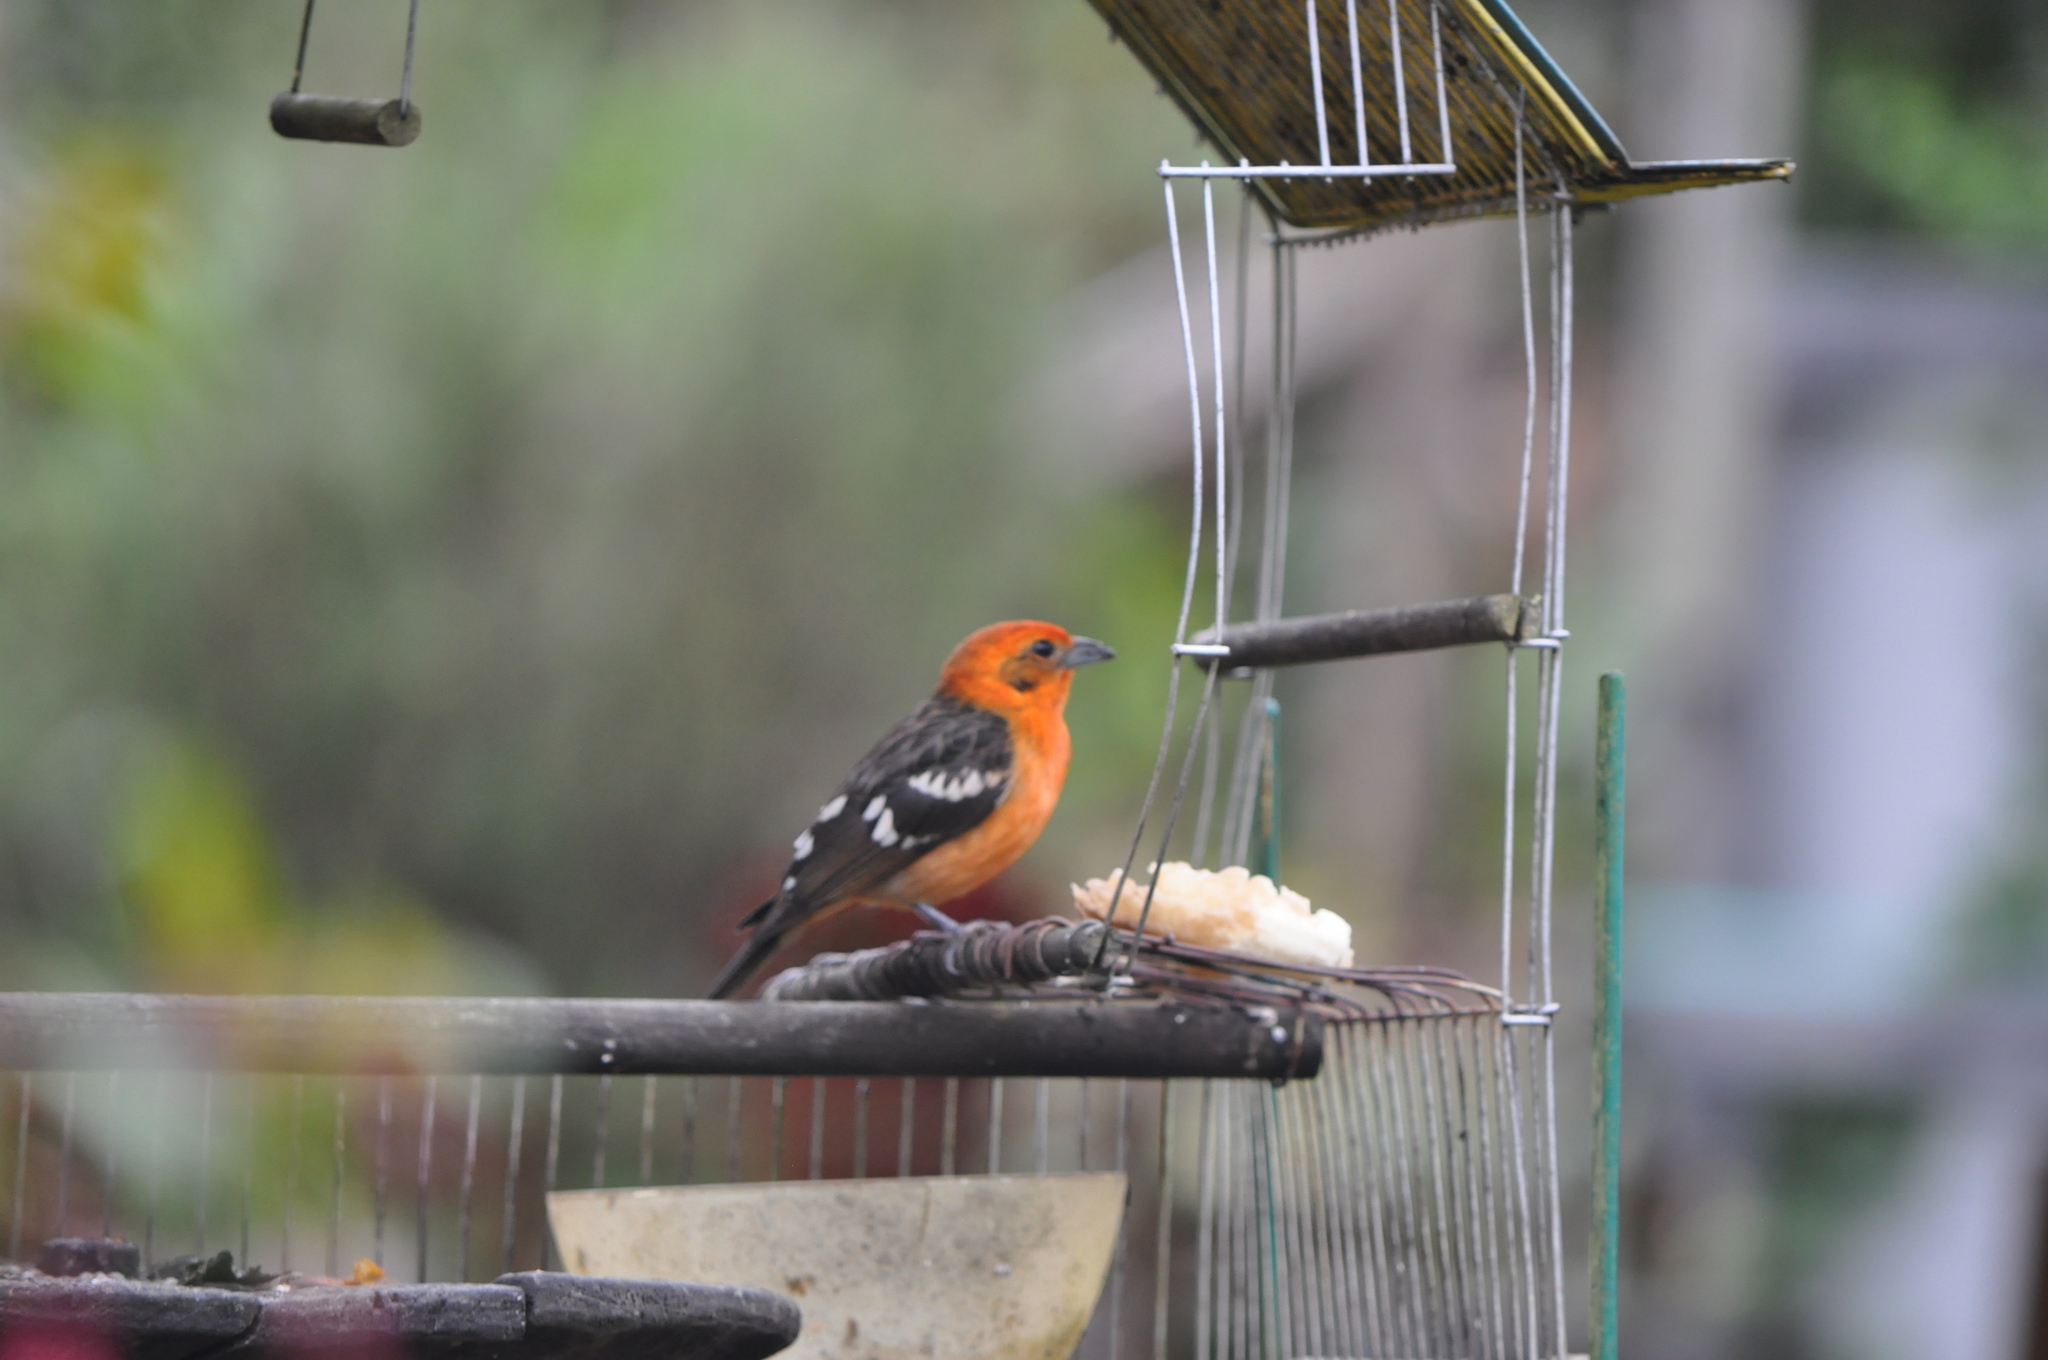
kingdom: Animalia
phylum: Chordata
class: Aves
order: Passeriformes
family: Cardinalidae
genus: Piranga
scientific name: Piranga bidentata
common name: Flame-colored tanager
